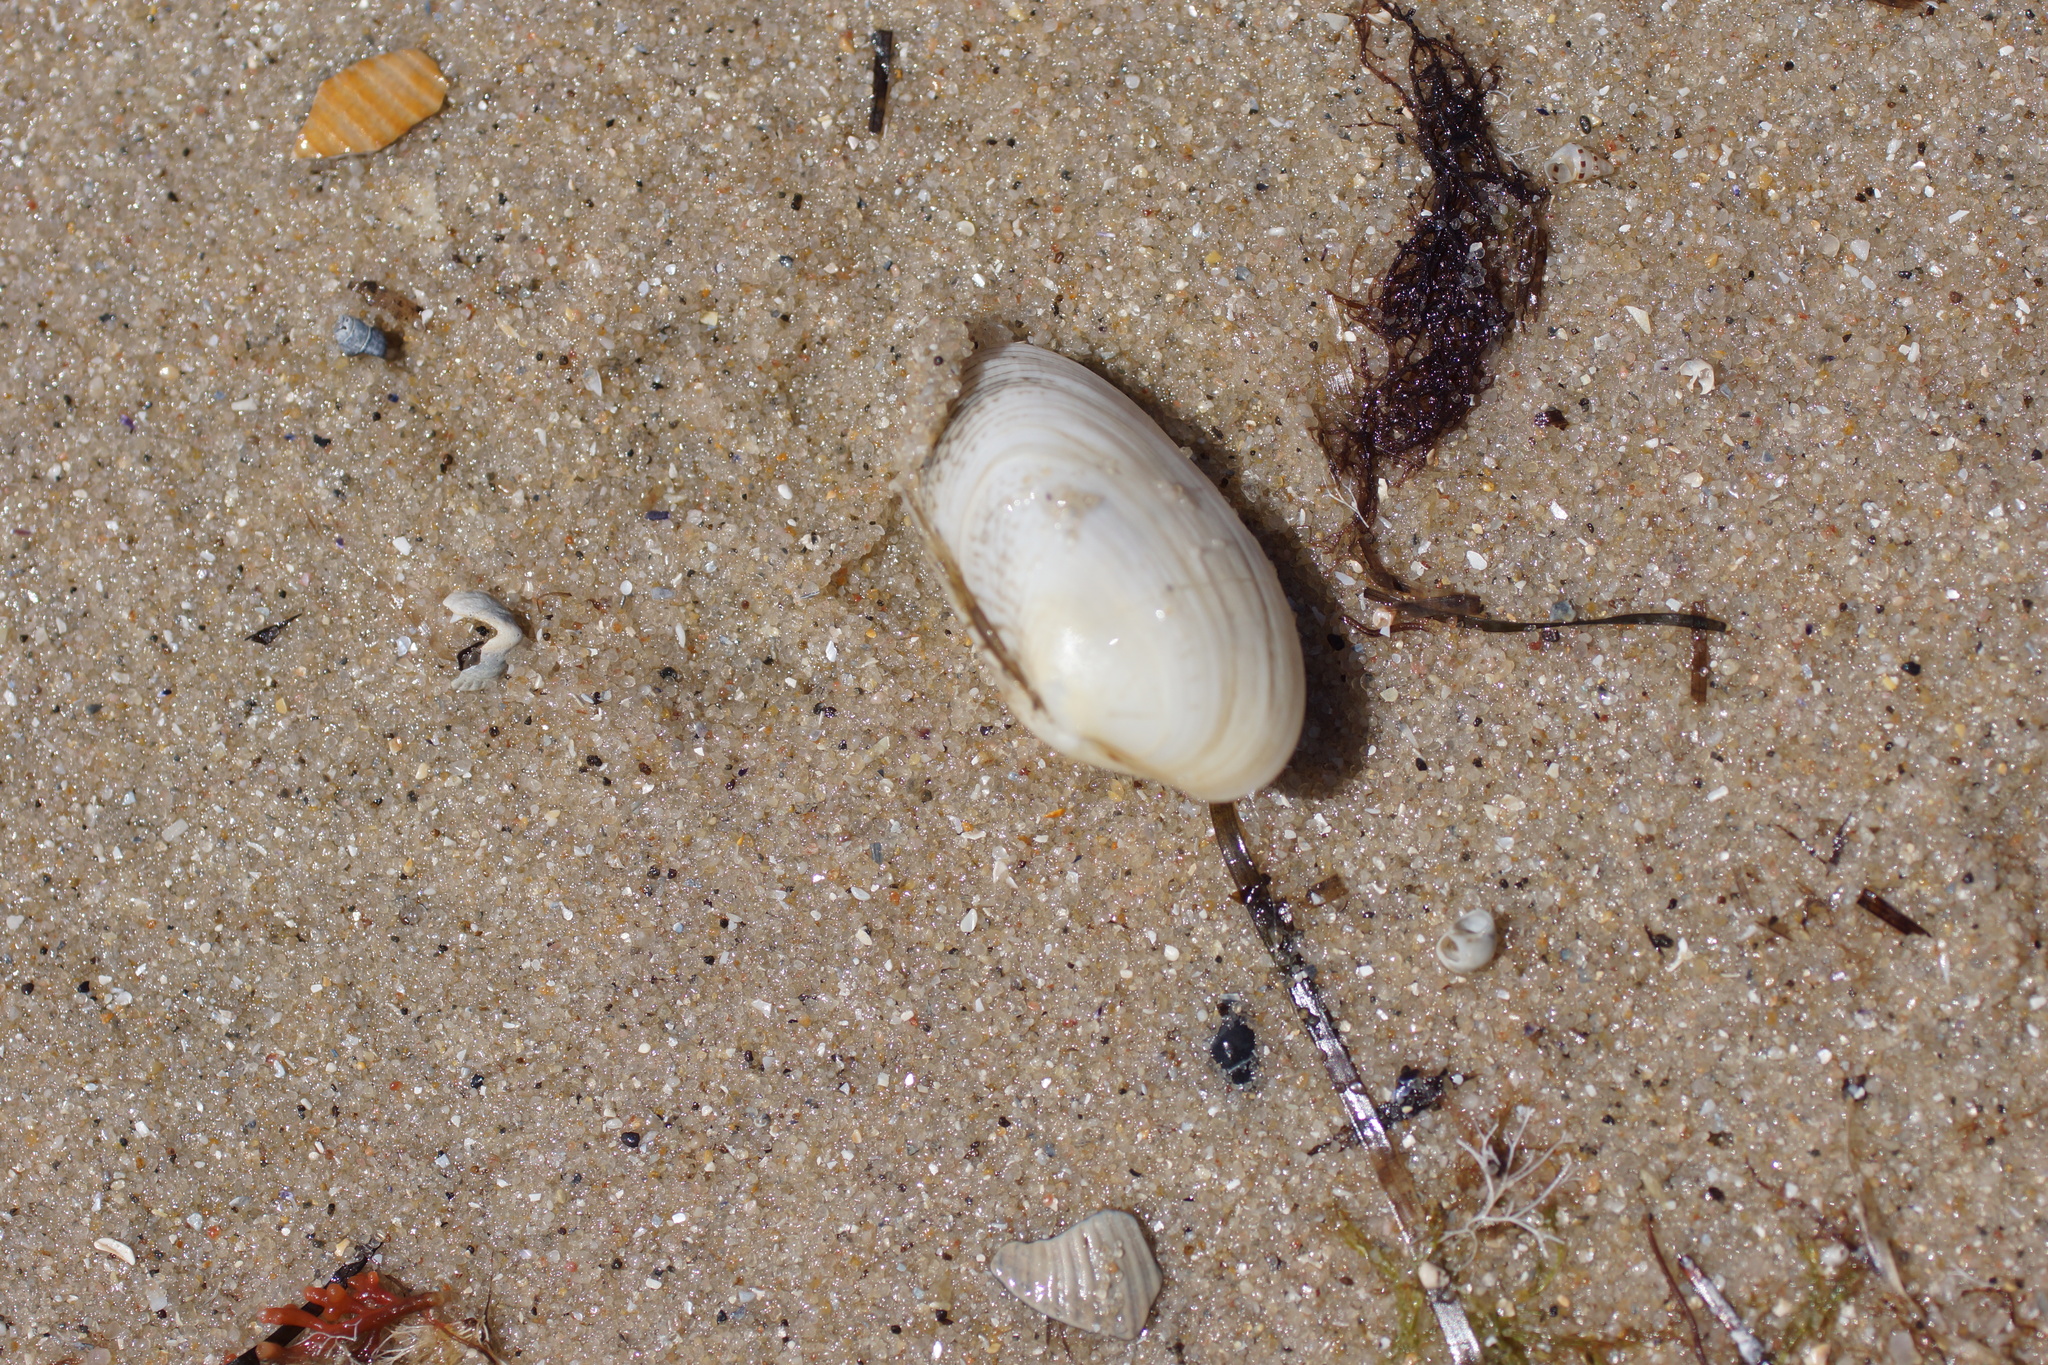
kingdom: Animalia
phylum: Mollusca
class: Bivalvia
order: Venerida
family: Veneridae
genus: Venerupis
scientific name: Venerupis anomala
